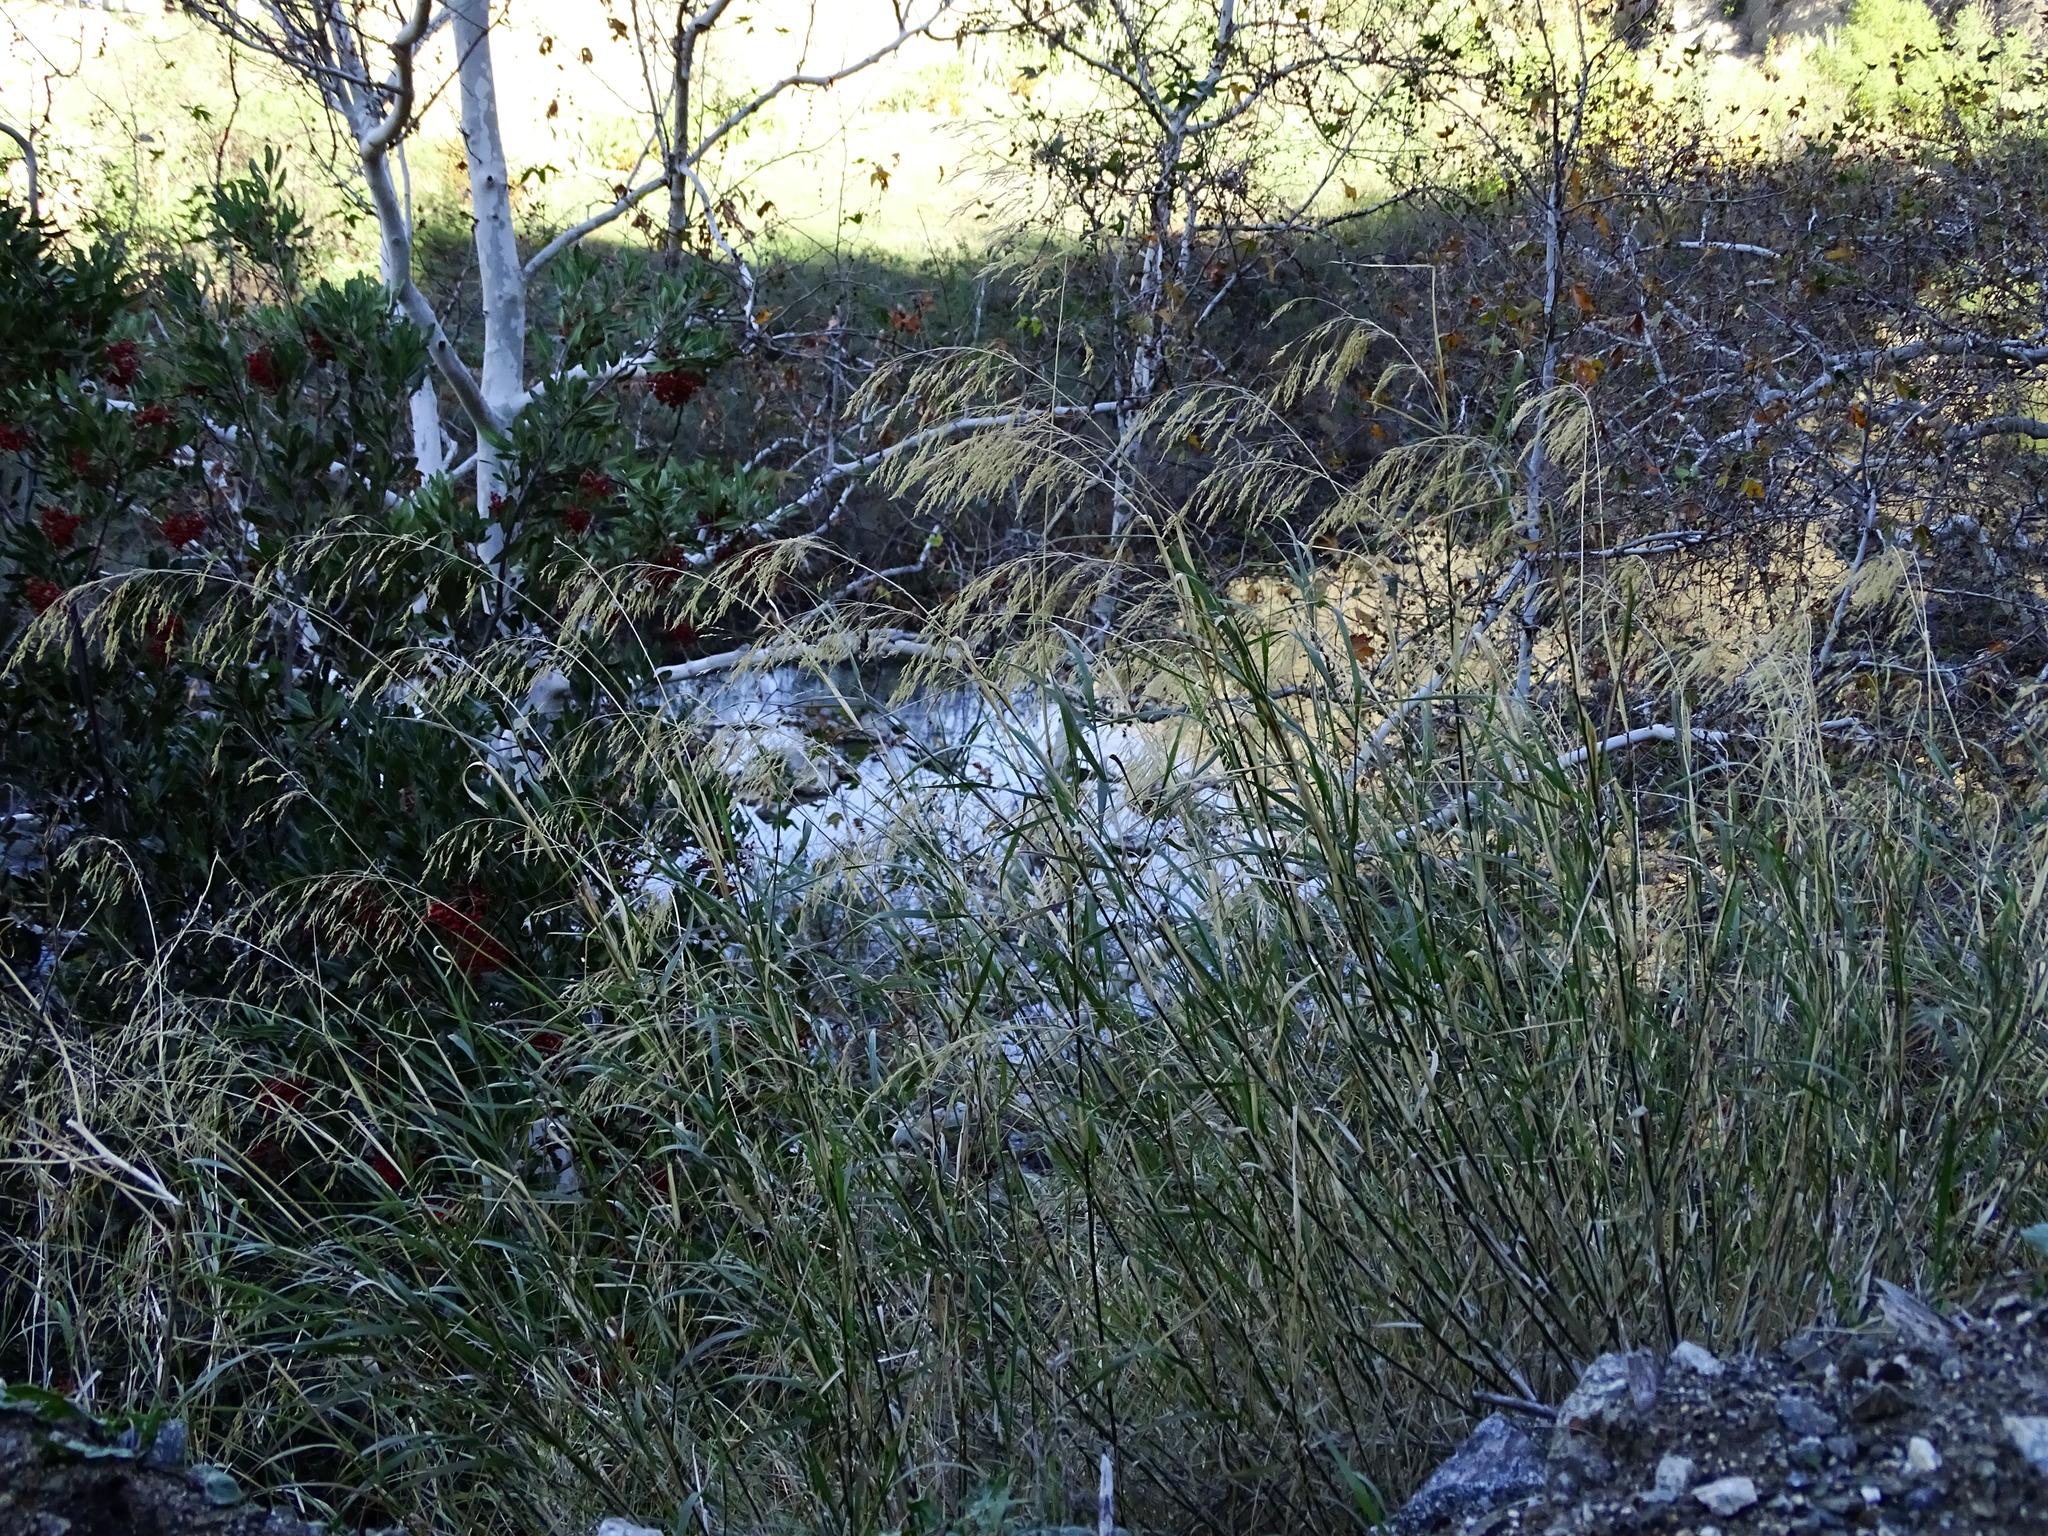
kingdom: Plantae
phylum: Tracheophyta
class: Liliopsida
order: Poales
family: Poaceae
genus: Oloptum
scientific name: Oloptum miliaceum
